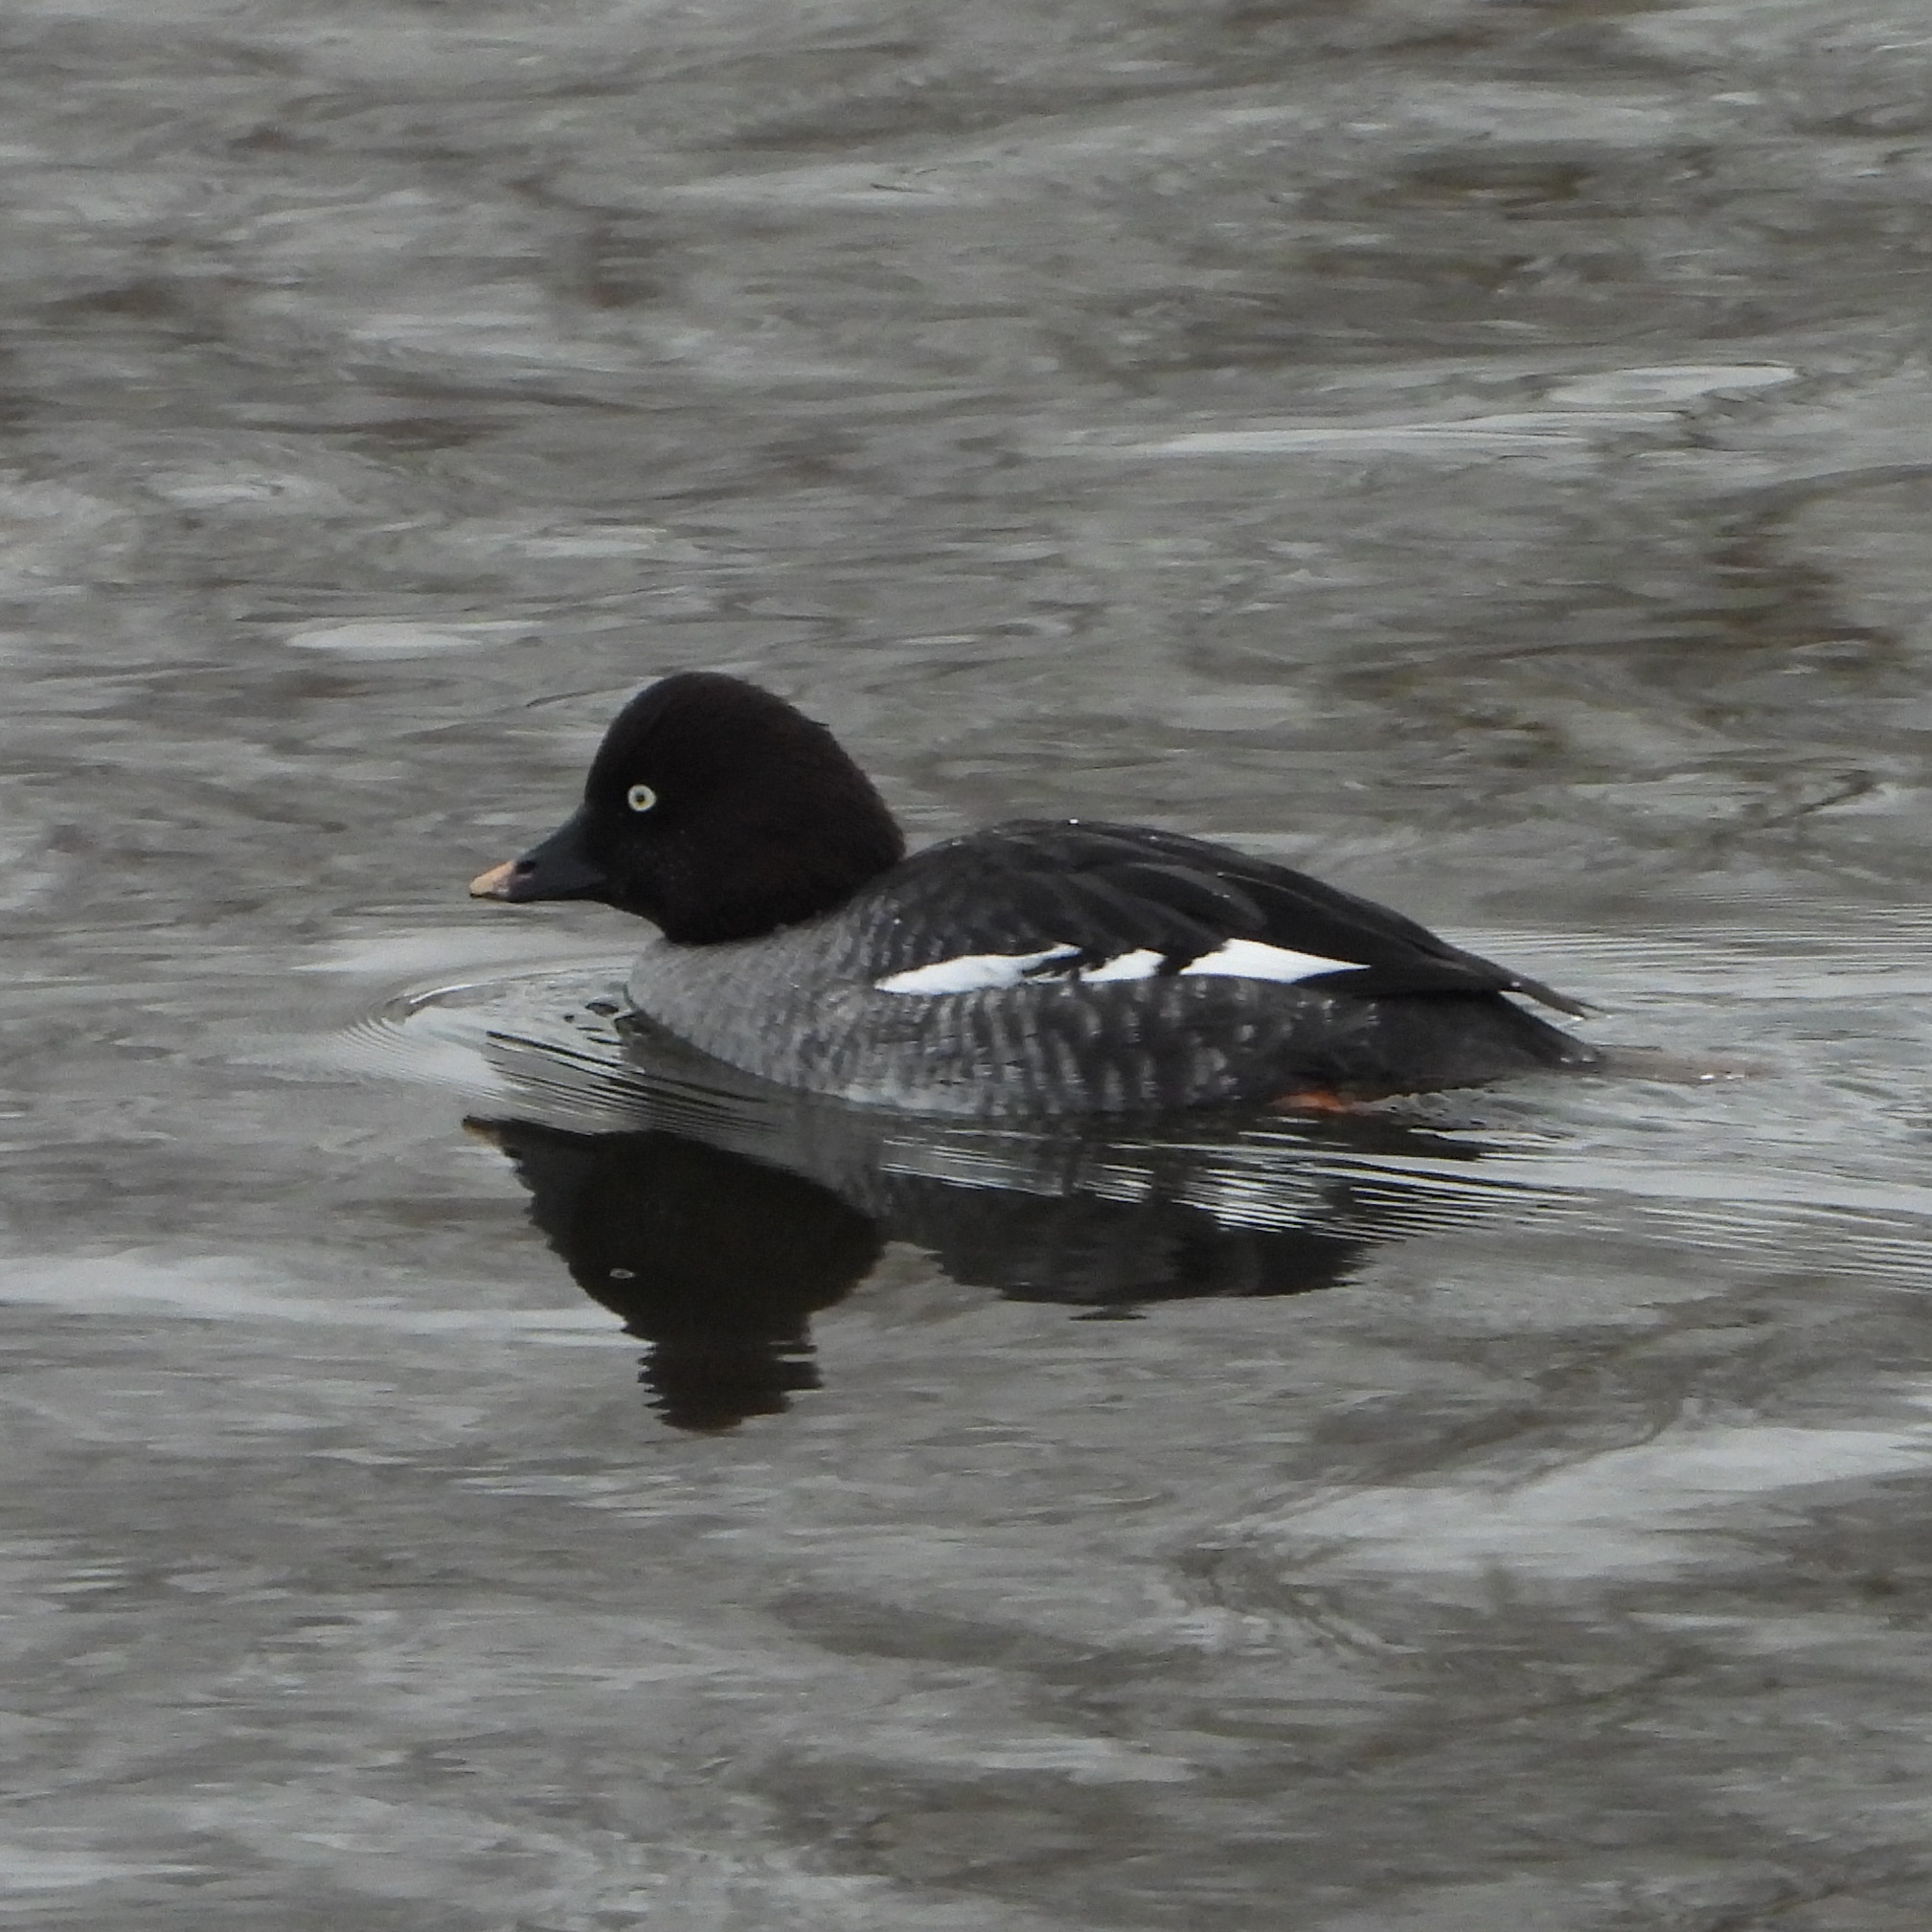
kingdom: Animalia
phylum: Chordata
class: Aves
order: Anseriformes
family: Anatidae
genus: Bucephala
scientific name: Bucephala clangula
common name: Common goldeneye
